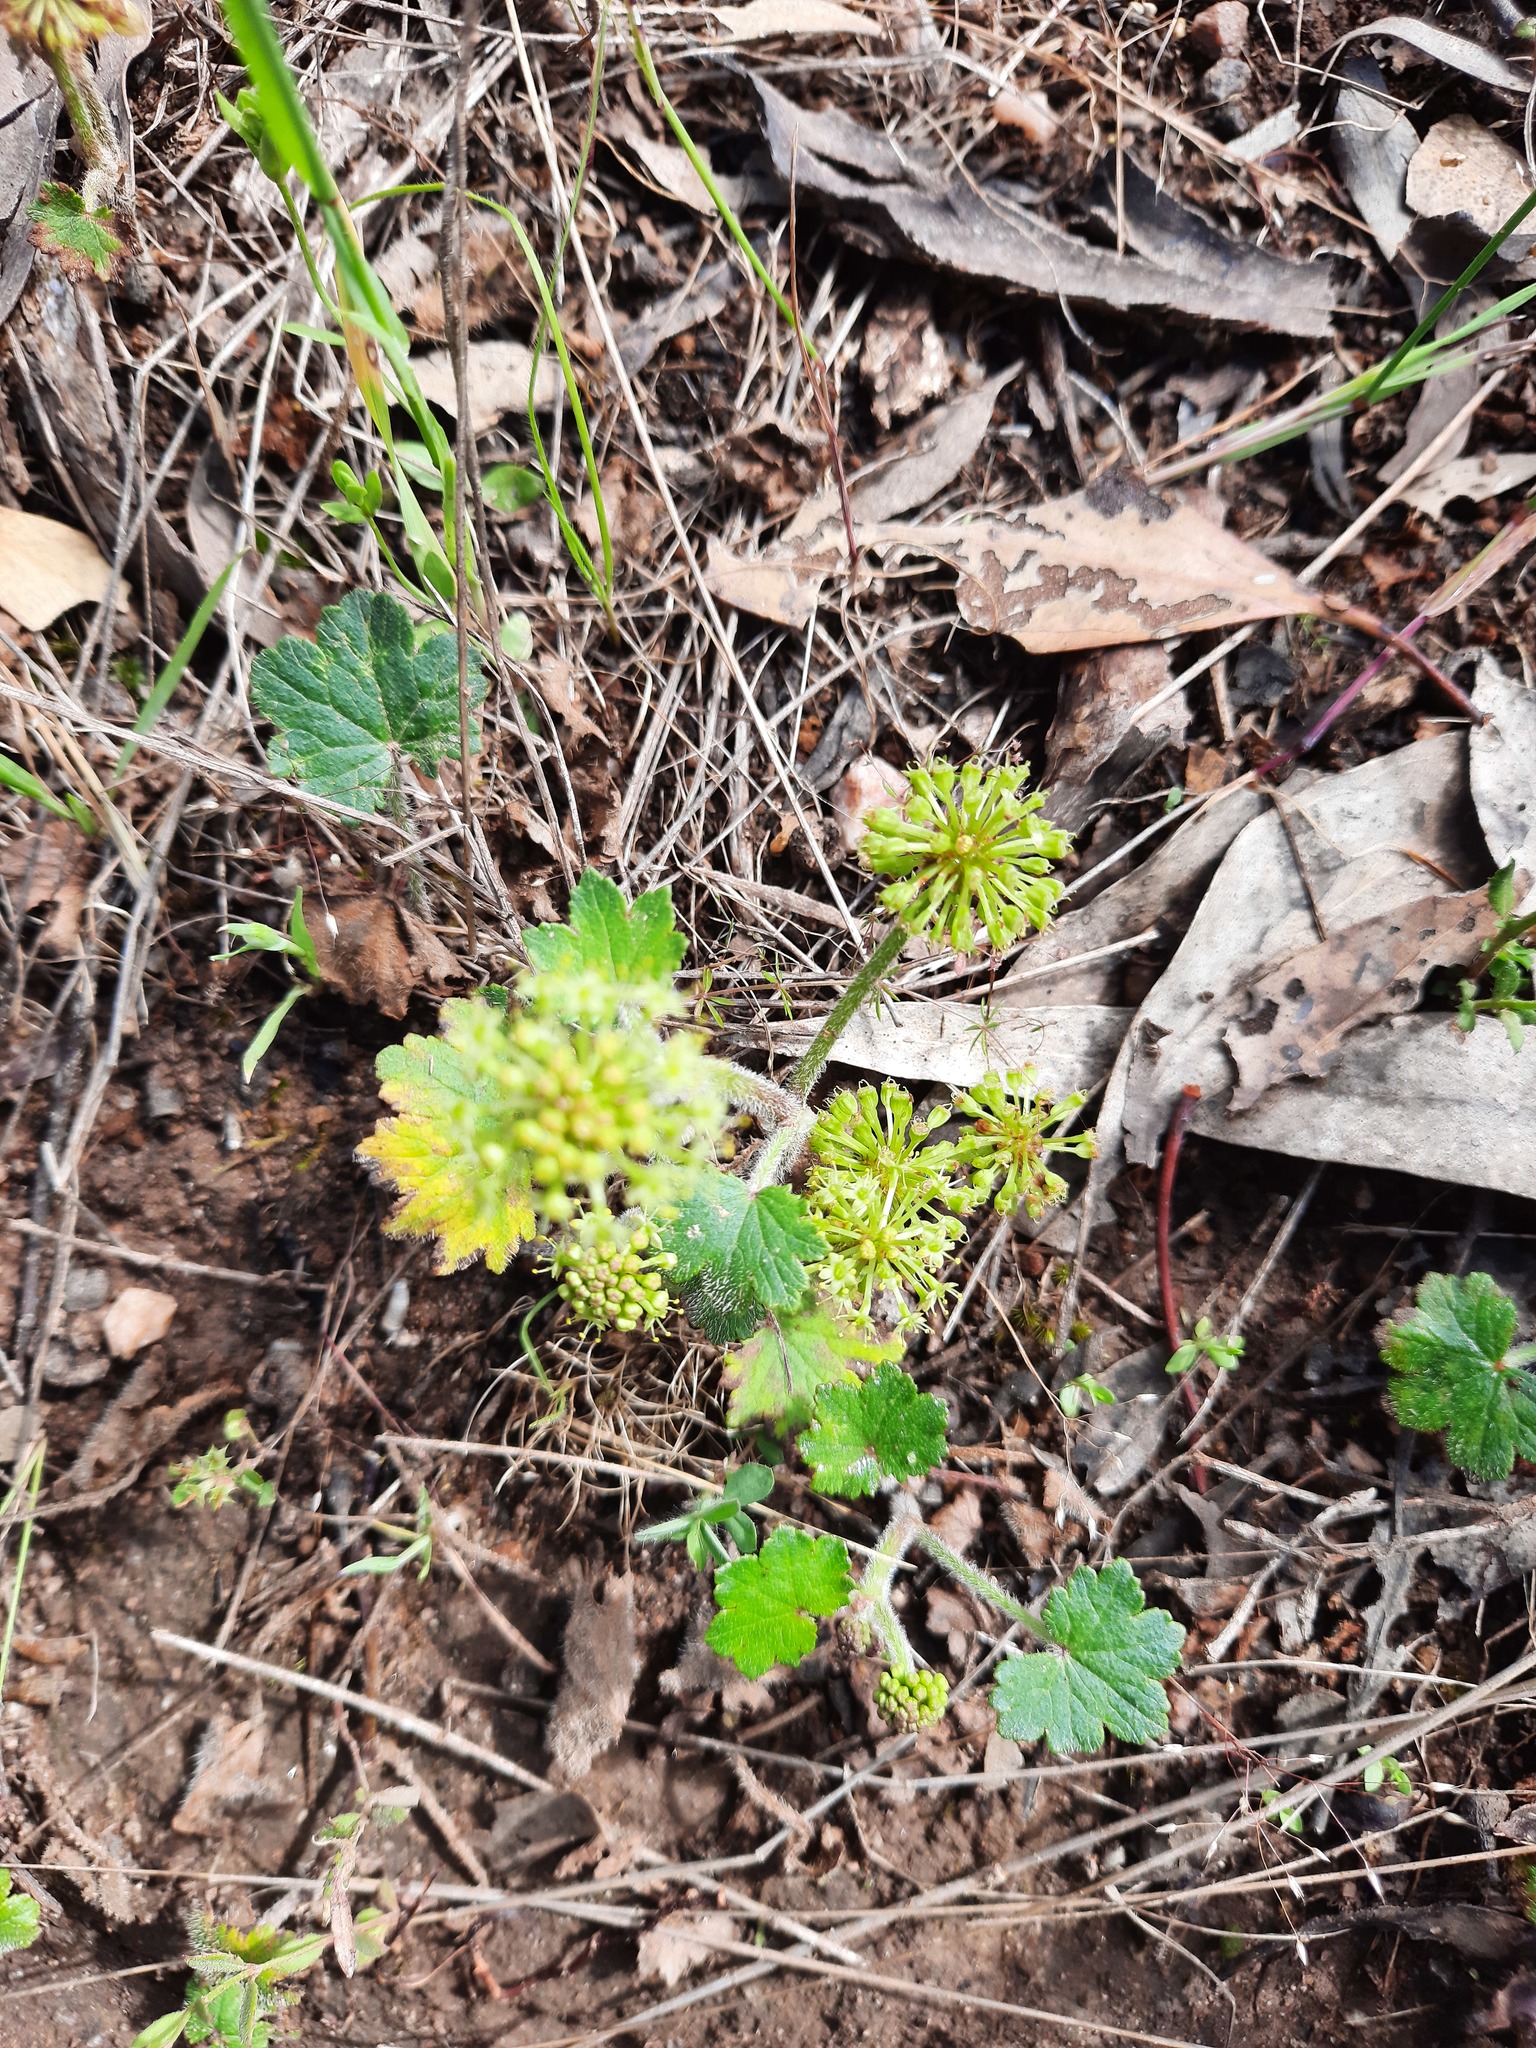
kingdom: Plantae
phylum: Tracheophyta
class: Magnoliopsida
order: Apiales
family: Araliaceae
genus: Hydrocotyle
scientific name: Hydrocotyle laxiflora
